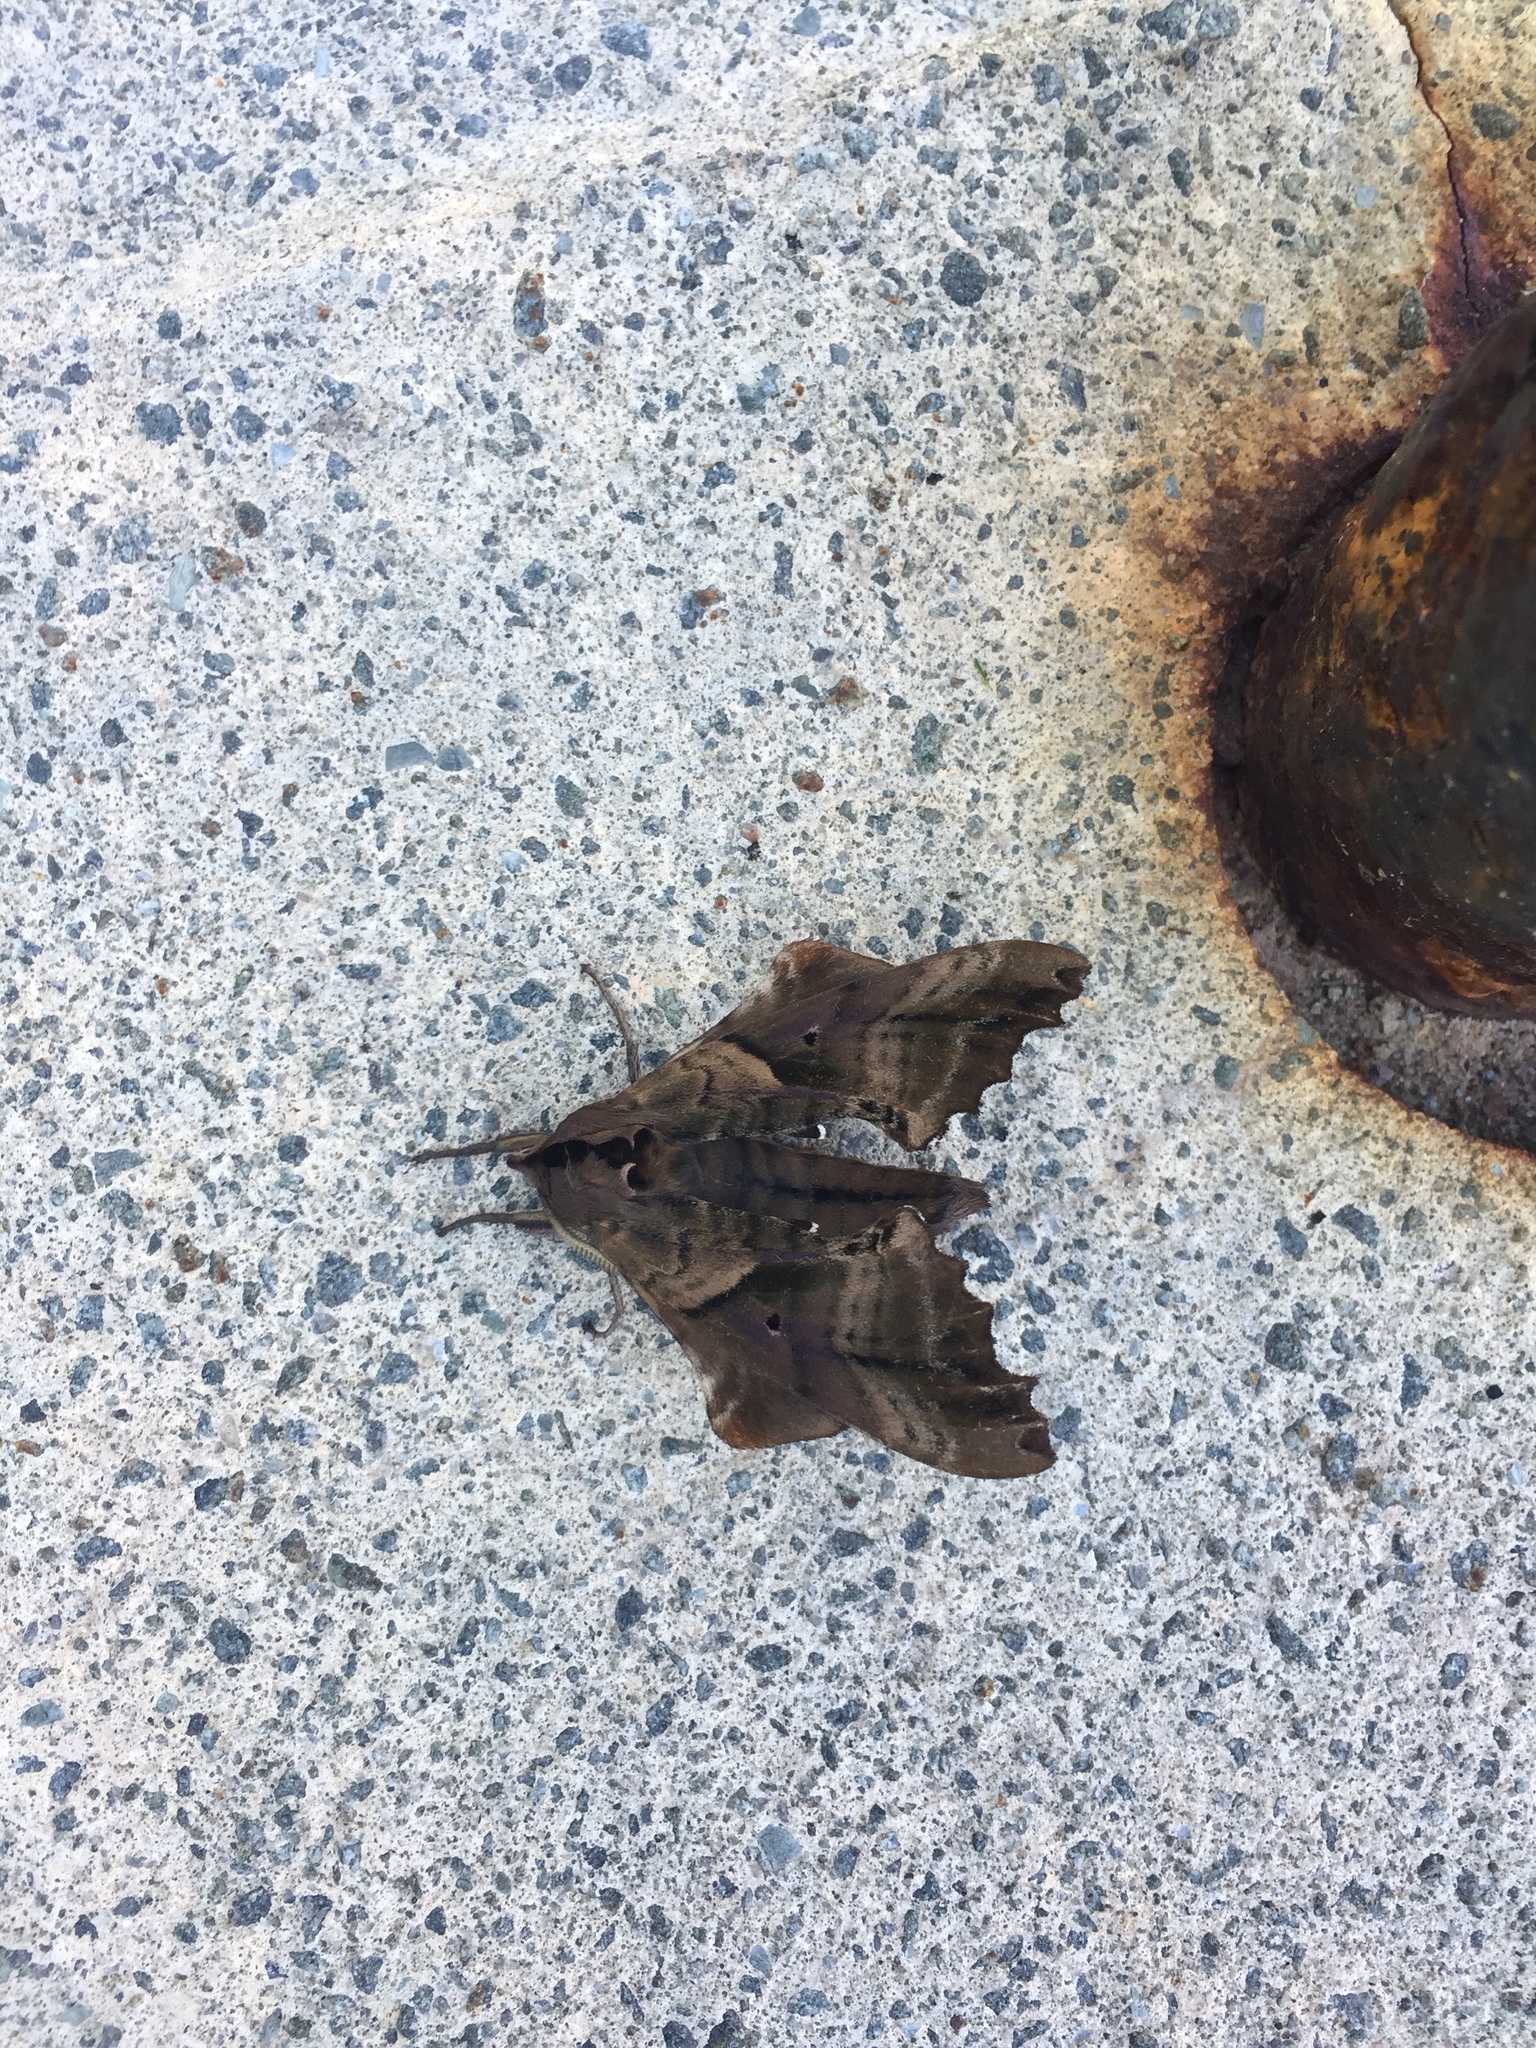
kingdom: Animalia
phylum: Arthropoda
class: Insecta
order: Lepidoptera
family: Sphingidae
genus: Paonias
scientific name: Paonias excaecata
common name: Blind-eyed sphinx
